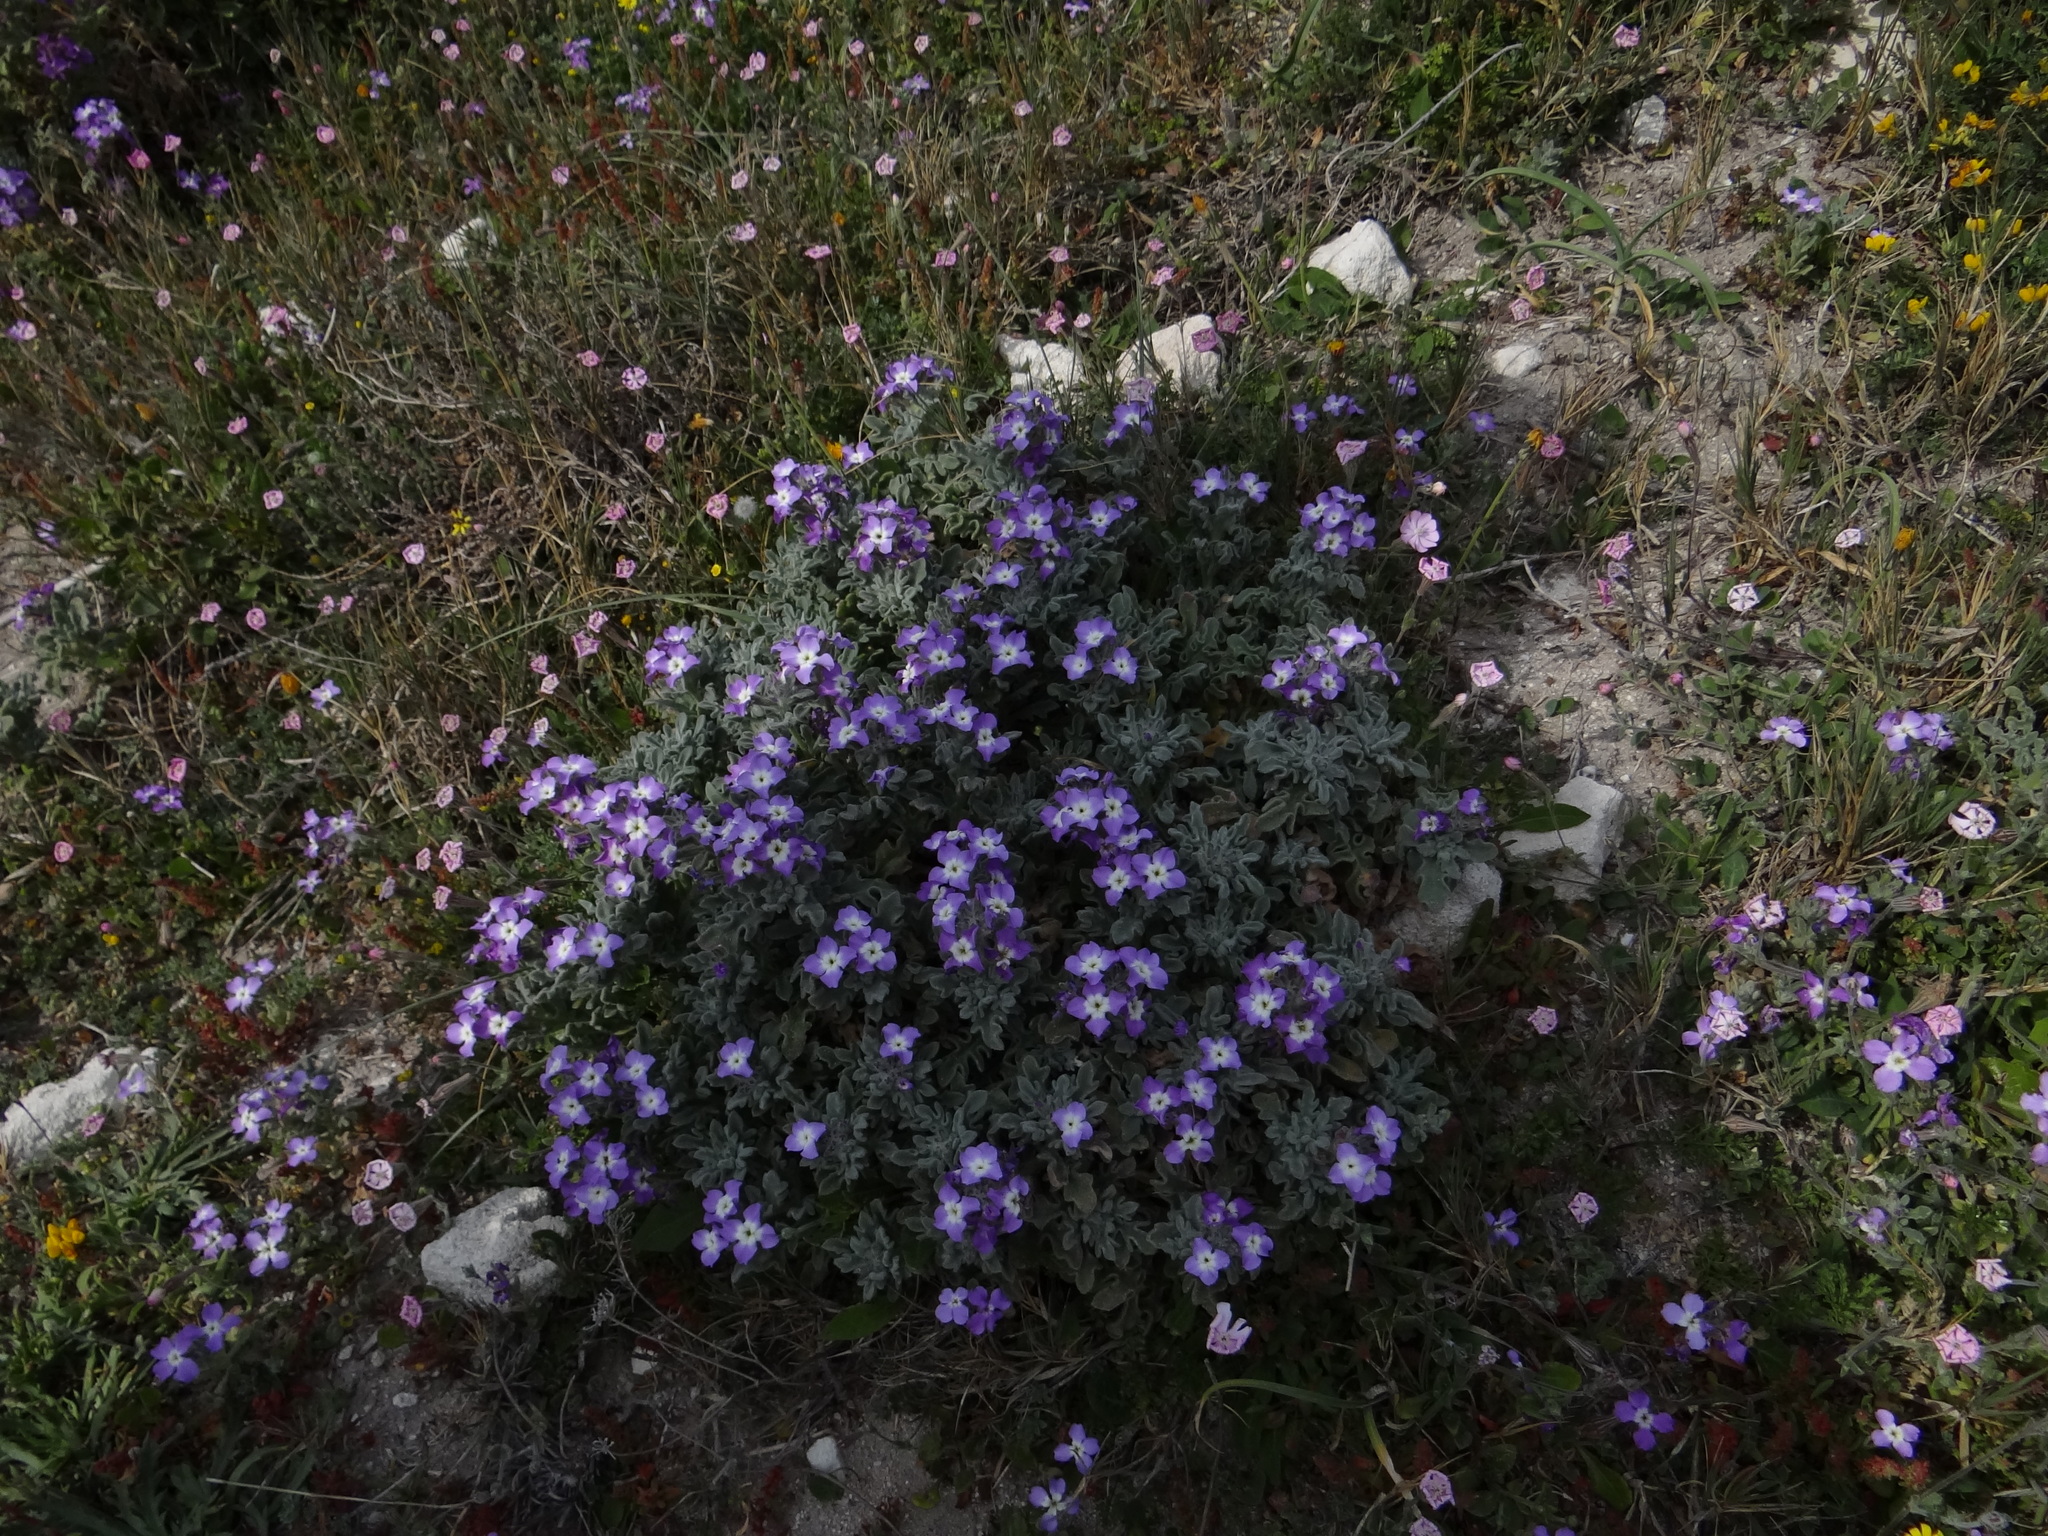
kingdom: Plantae
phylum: Tracheophyta
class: Magnoliopsida
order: Brassicales
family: Brassicaceae
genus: Matthiola
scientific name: Matthiola tricuspidata
